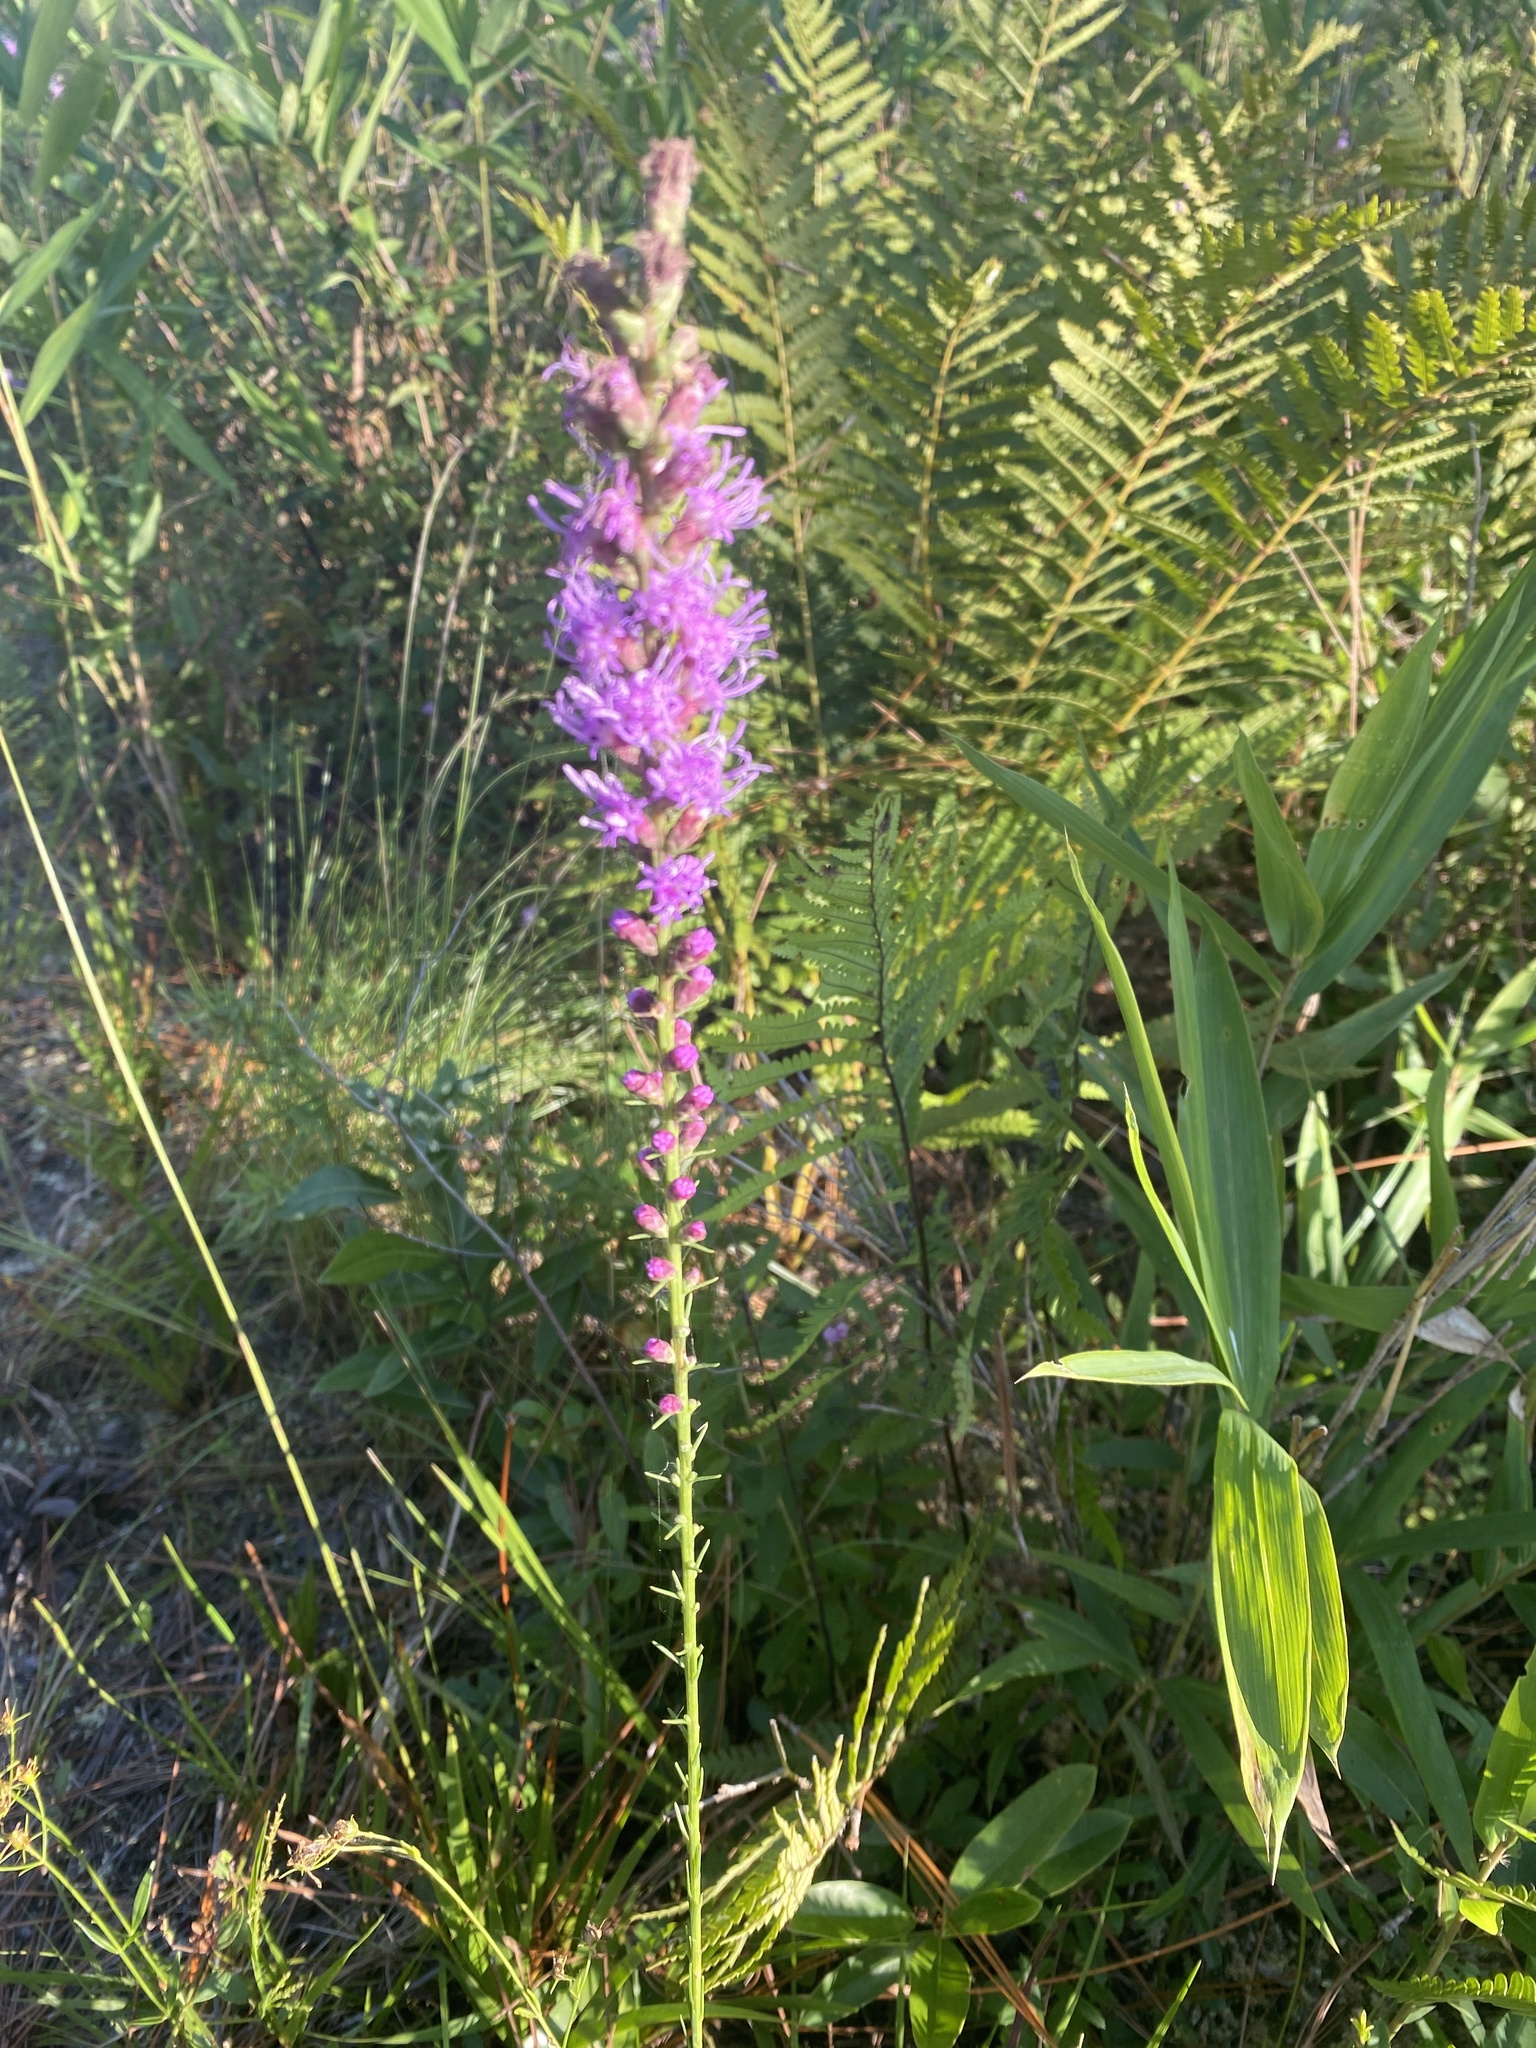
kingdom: Plantae
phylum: Tracheophyta
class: Magnoliopsida
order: Asterales
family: Asteraceae
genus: Liatris
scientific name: Liatris spicata
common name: Florist gayfeather
